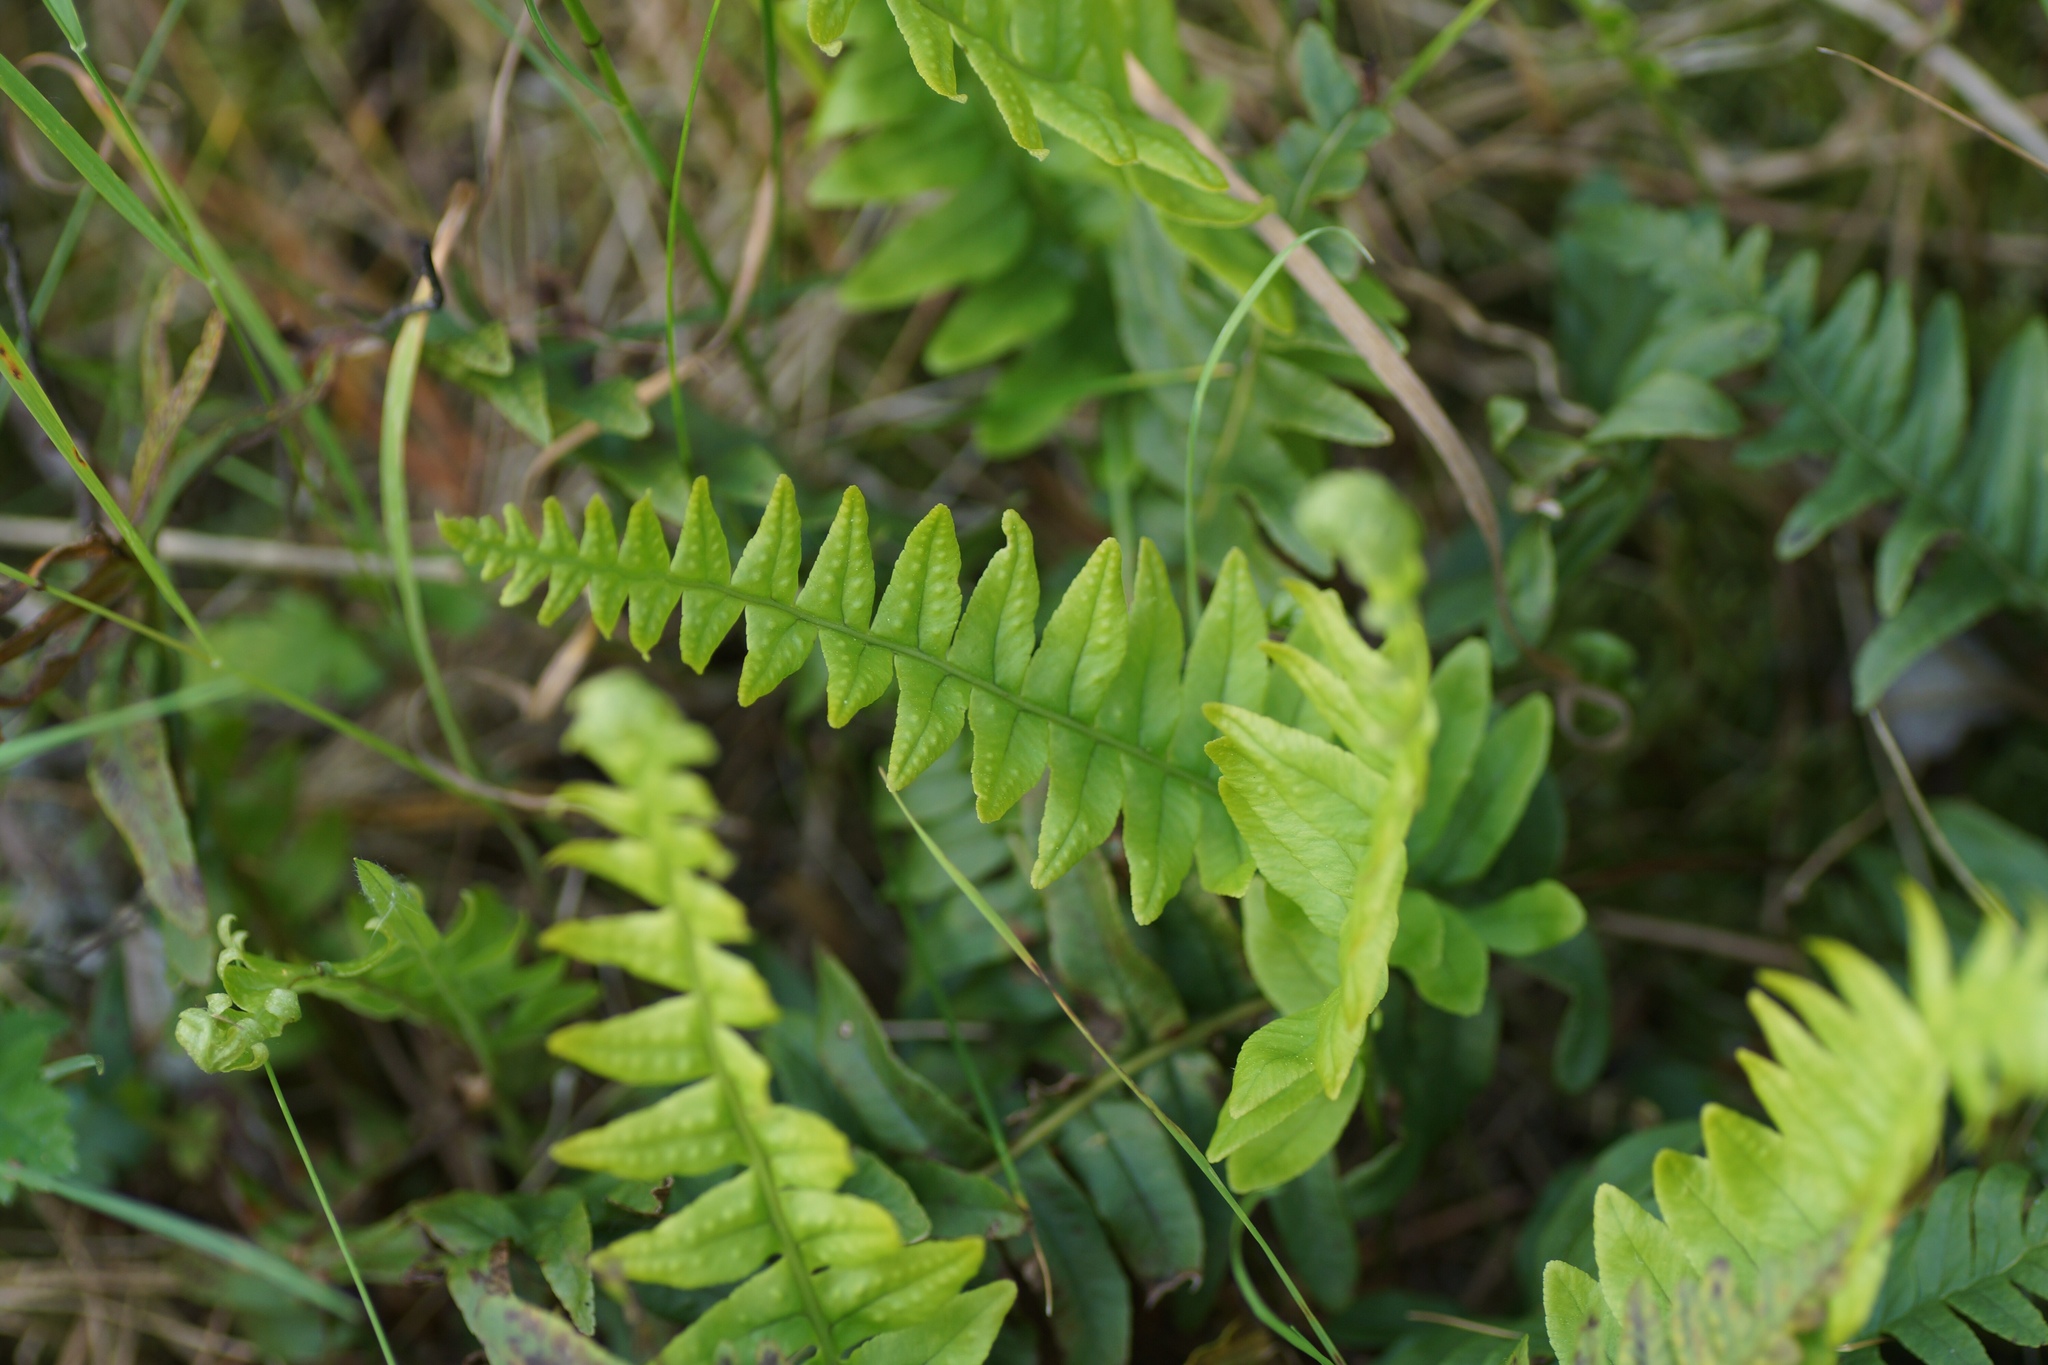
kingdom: Plantae
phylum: Tracheophyta
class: Polypodiopsida
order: Polypodiales
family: Polypodiaceae
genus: Polypodium
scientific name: Polypodium vulgare
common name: Common polypody
